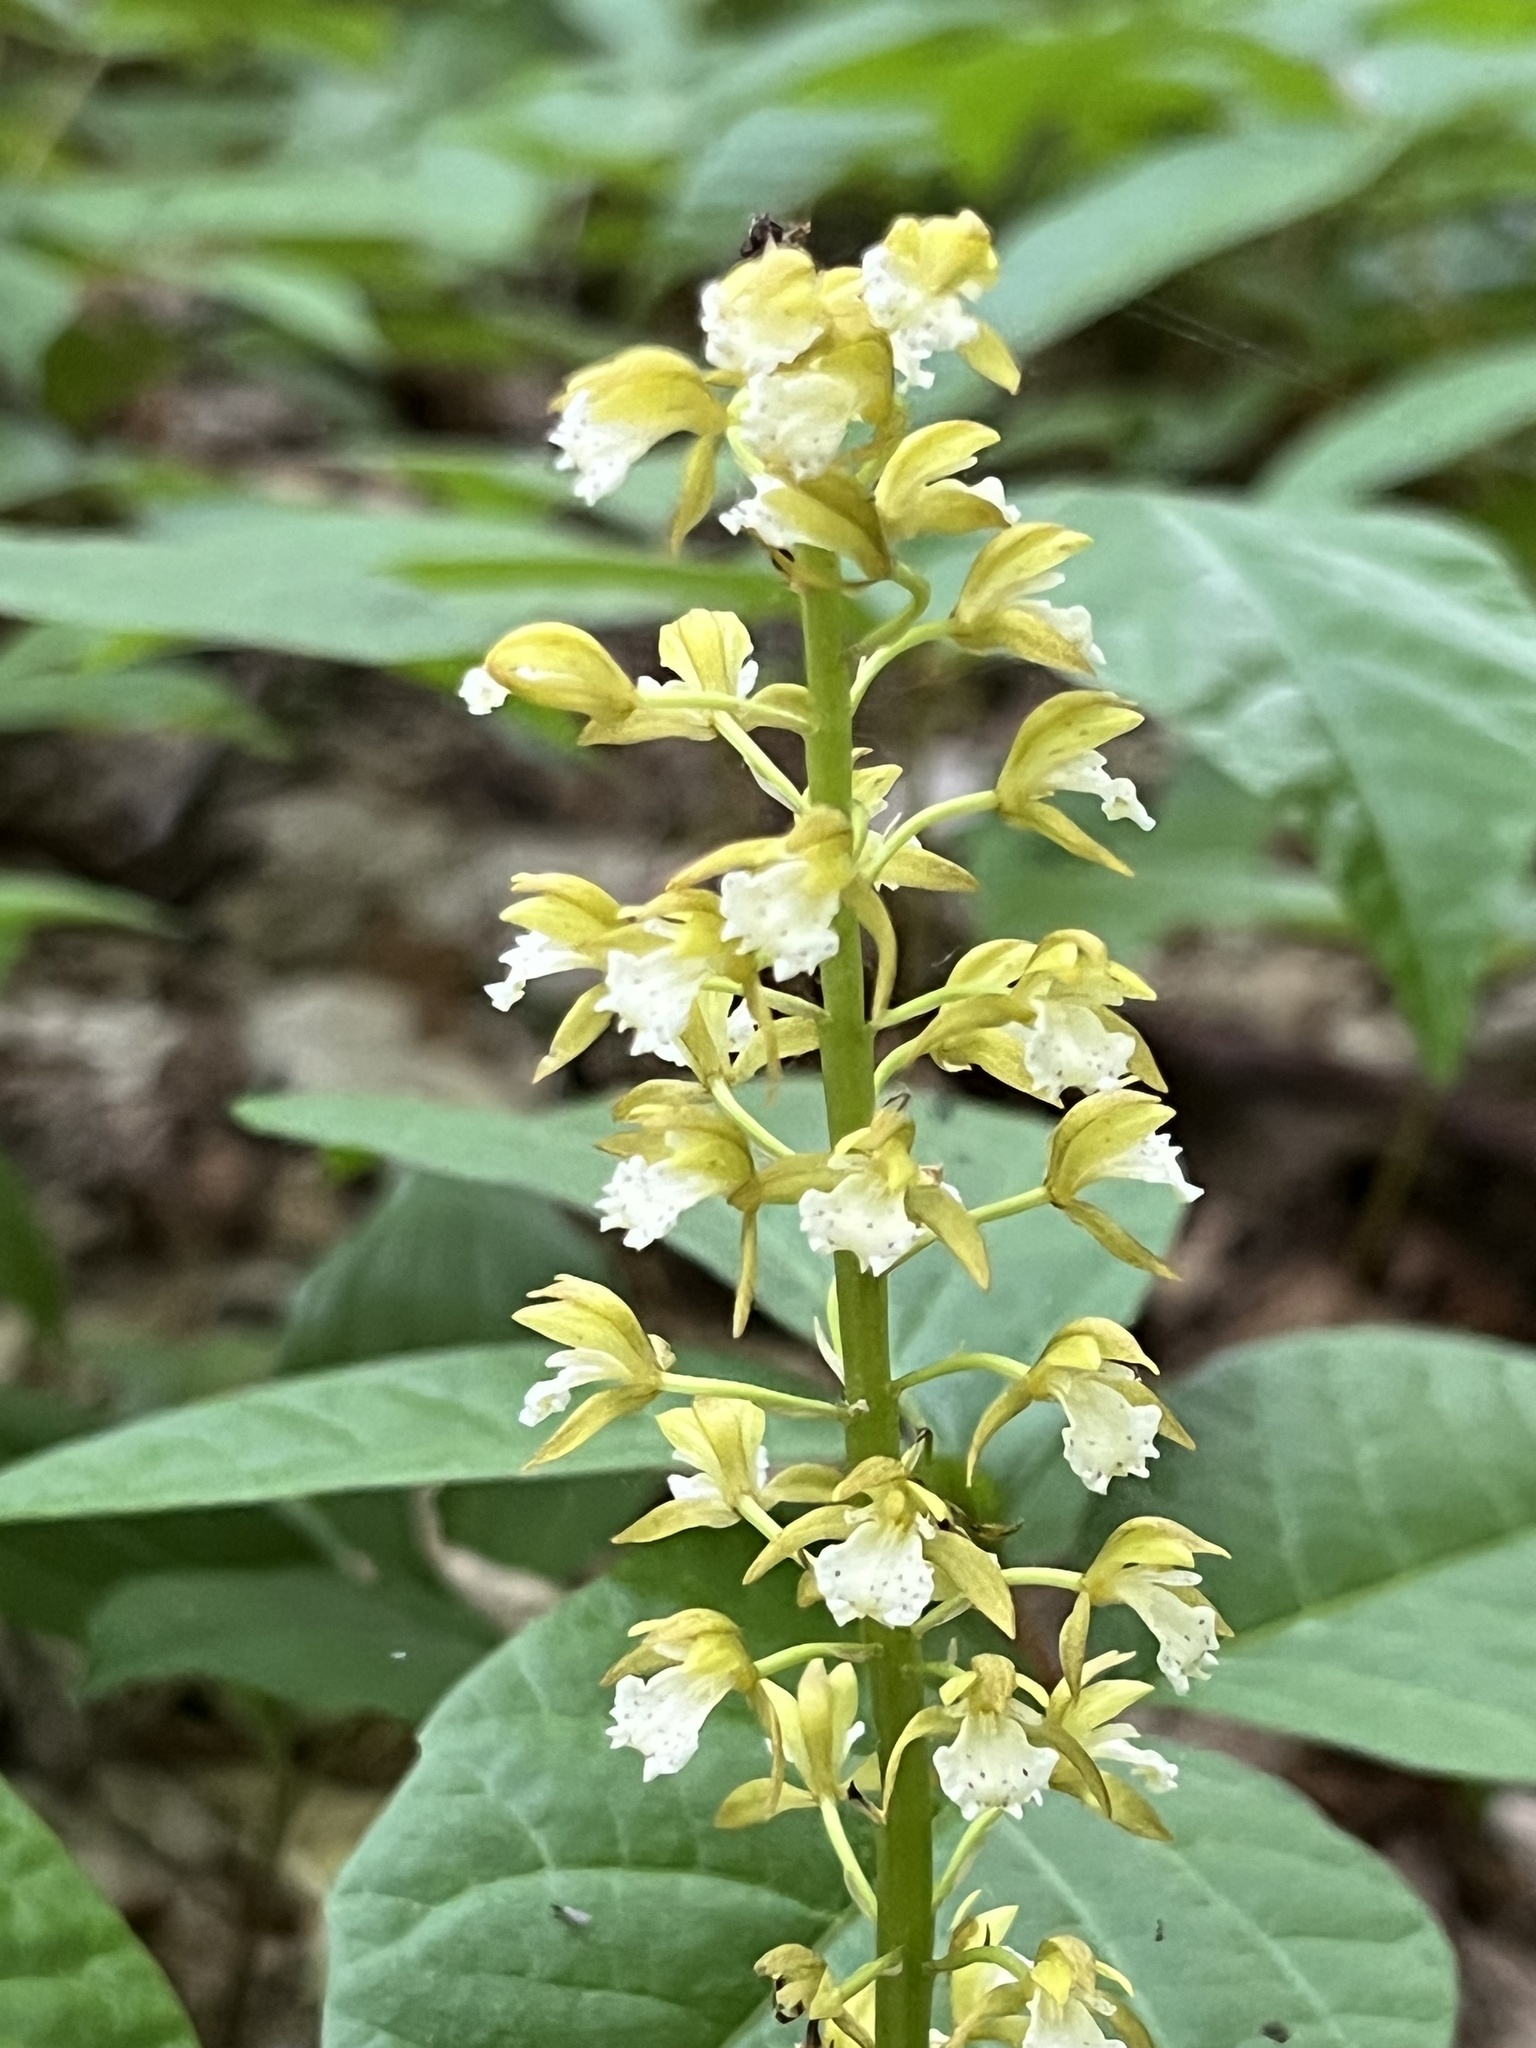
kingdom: Plantae
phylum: Tracheophyta
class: Liliopsida
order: Asparagales
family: Orchidaceae
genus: Oreorchis
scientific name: Oreorchis patens
